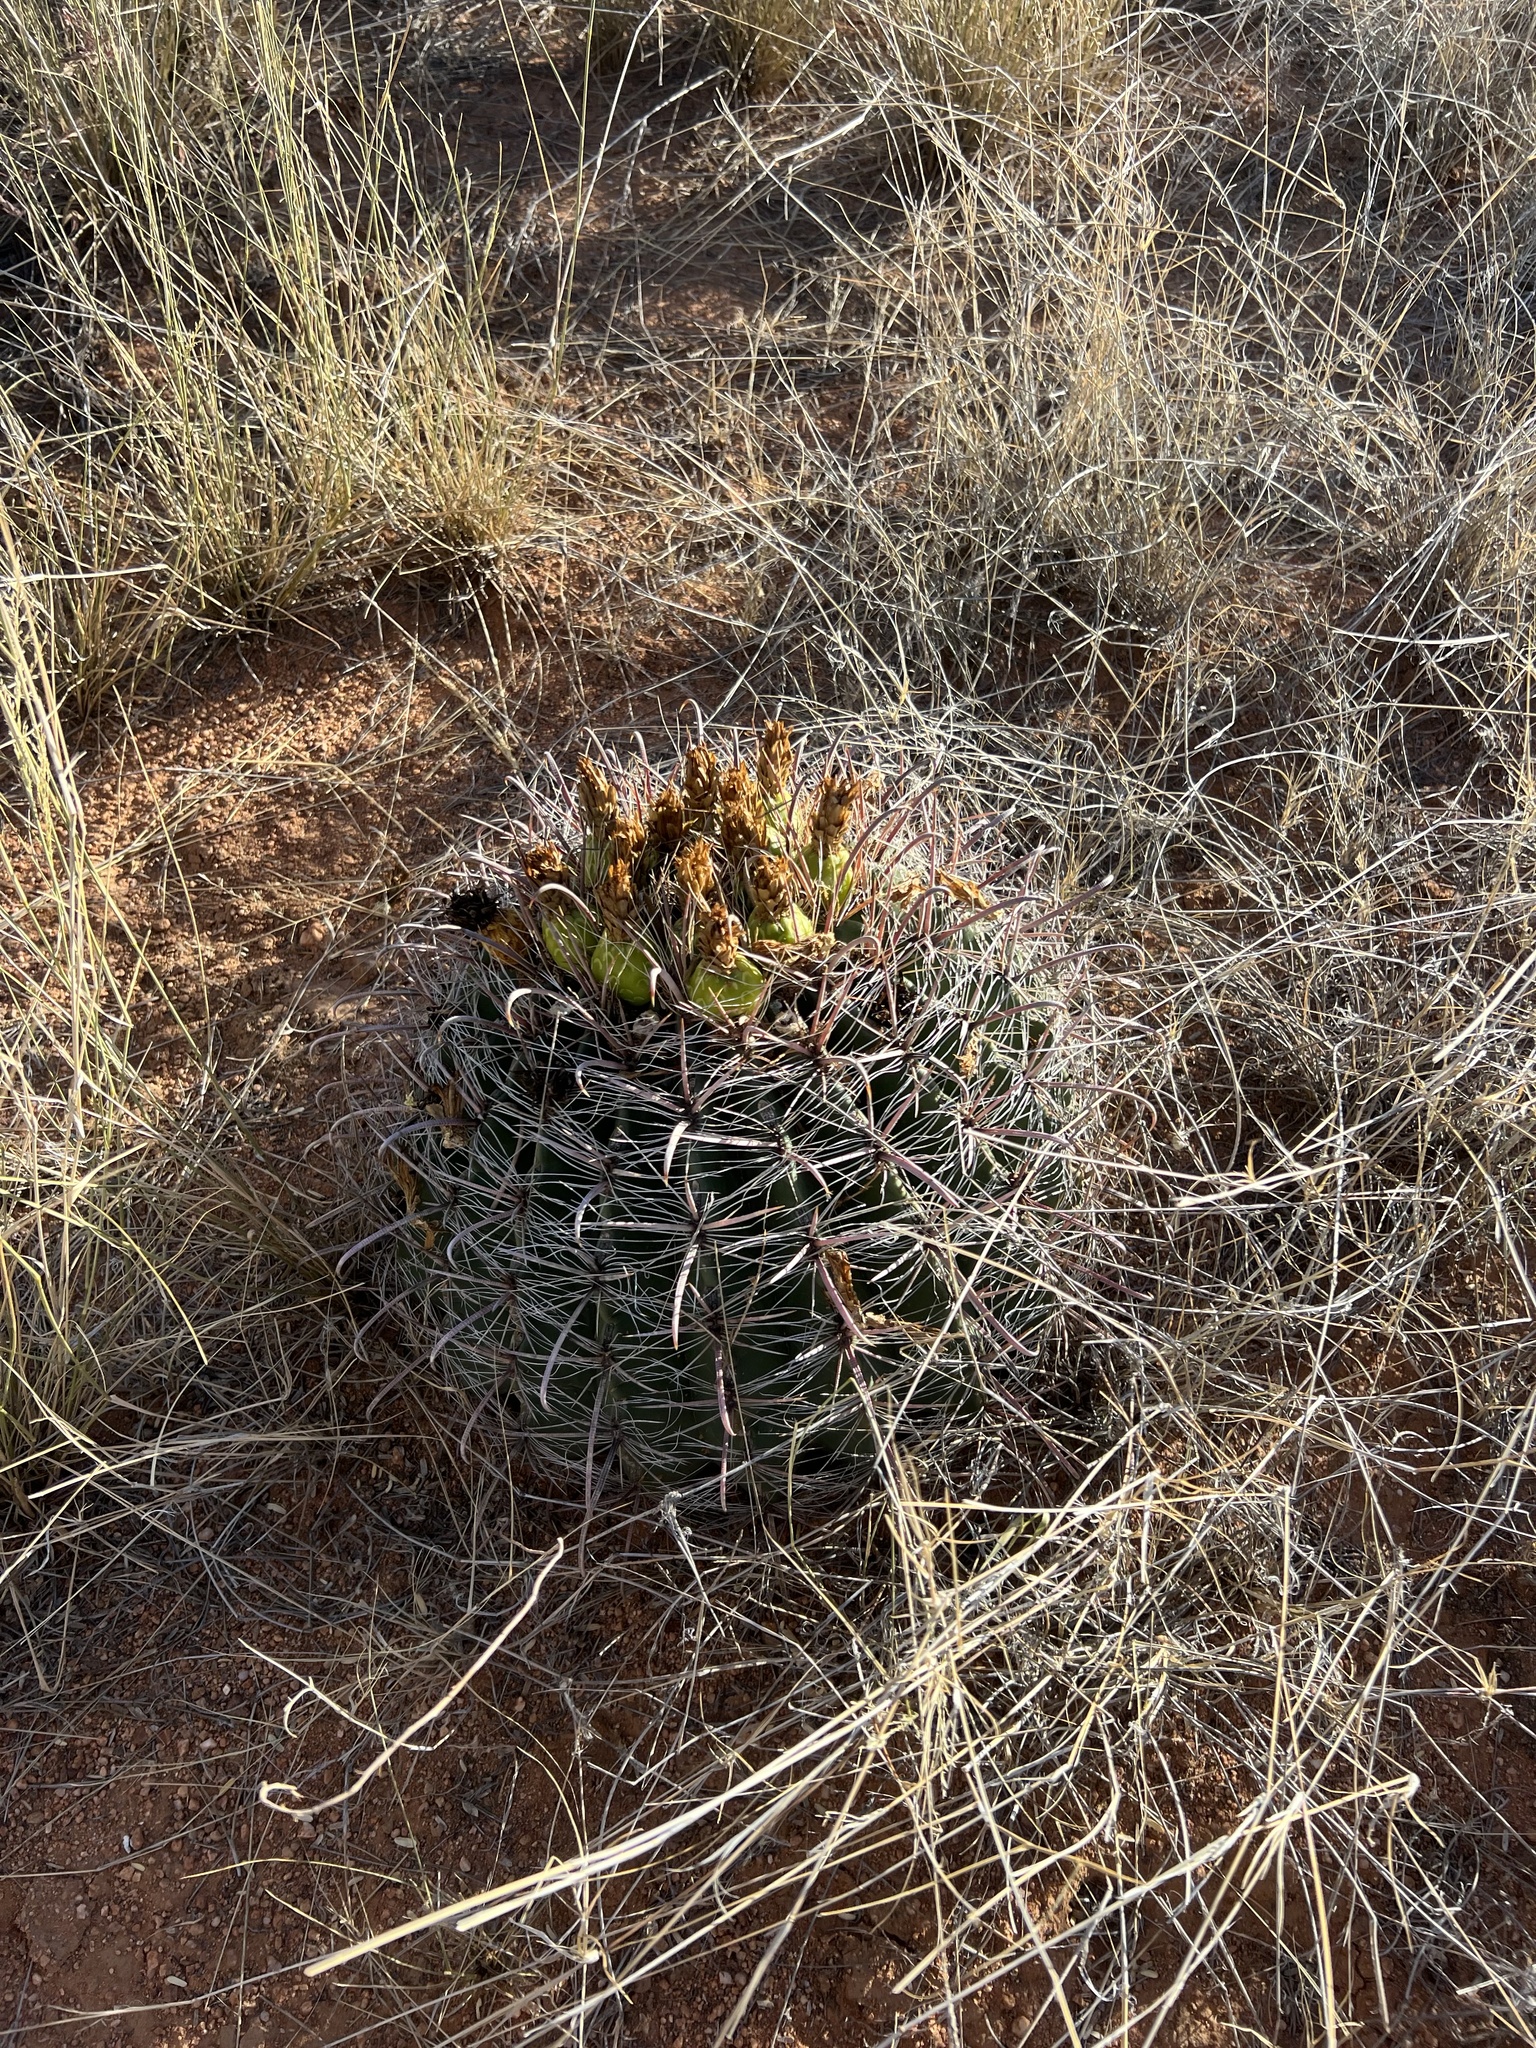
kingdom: Plantae
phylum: Tracheophyta
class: Magnoliopsida
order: Caryophyllales
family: Cactaceae
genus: Ferocactus
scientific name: Ferocactus wislizeni
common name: Candy barrel cactus
